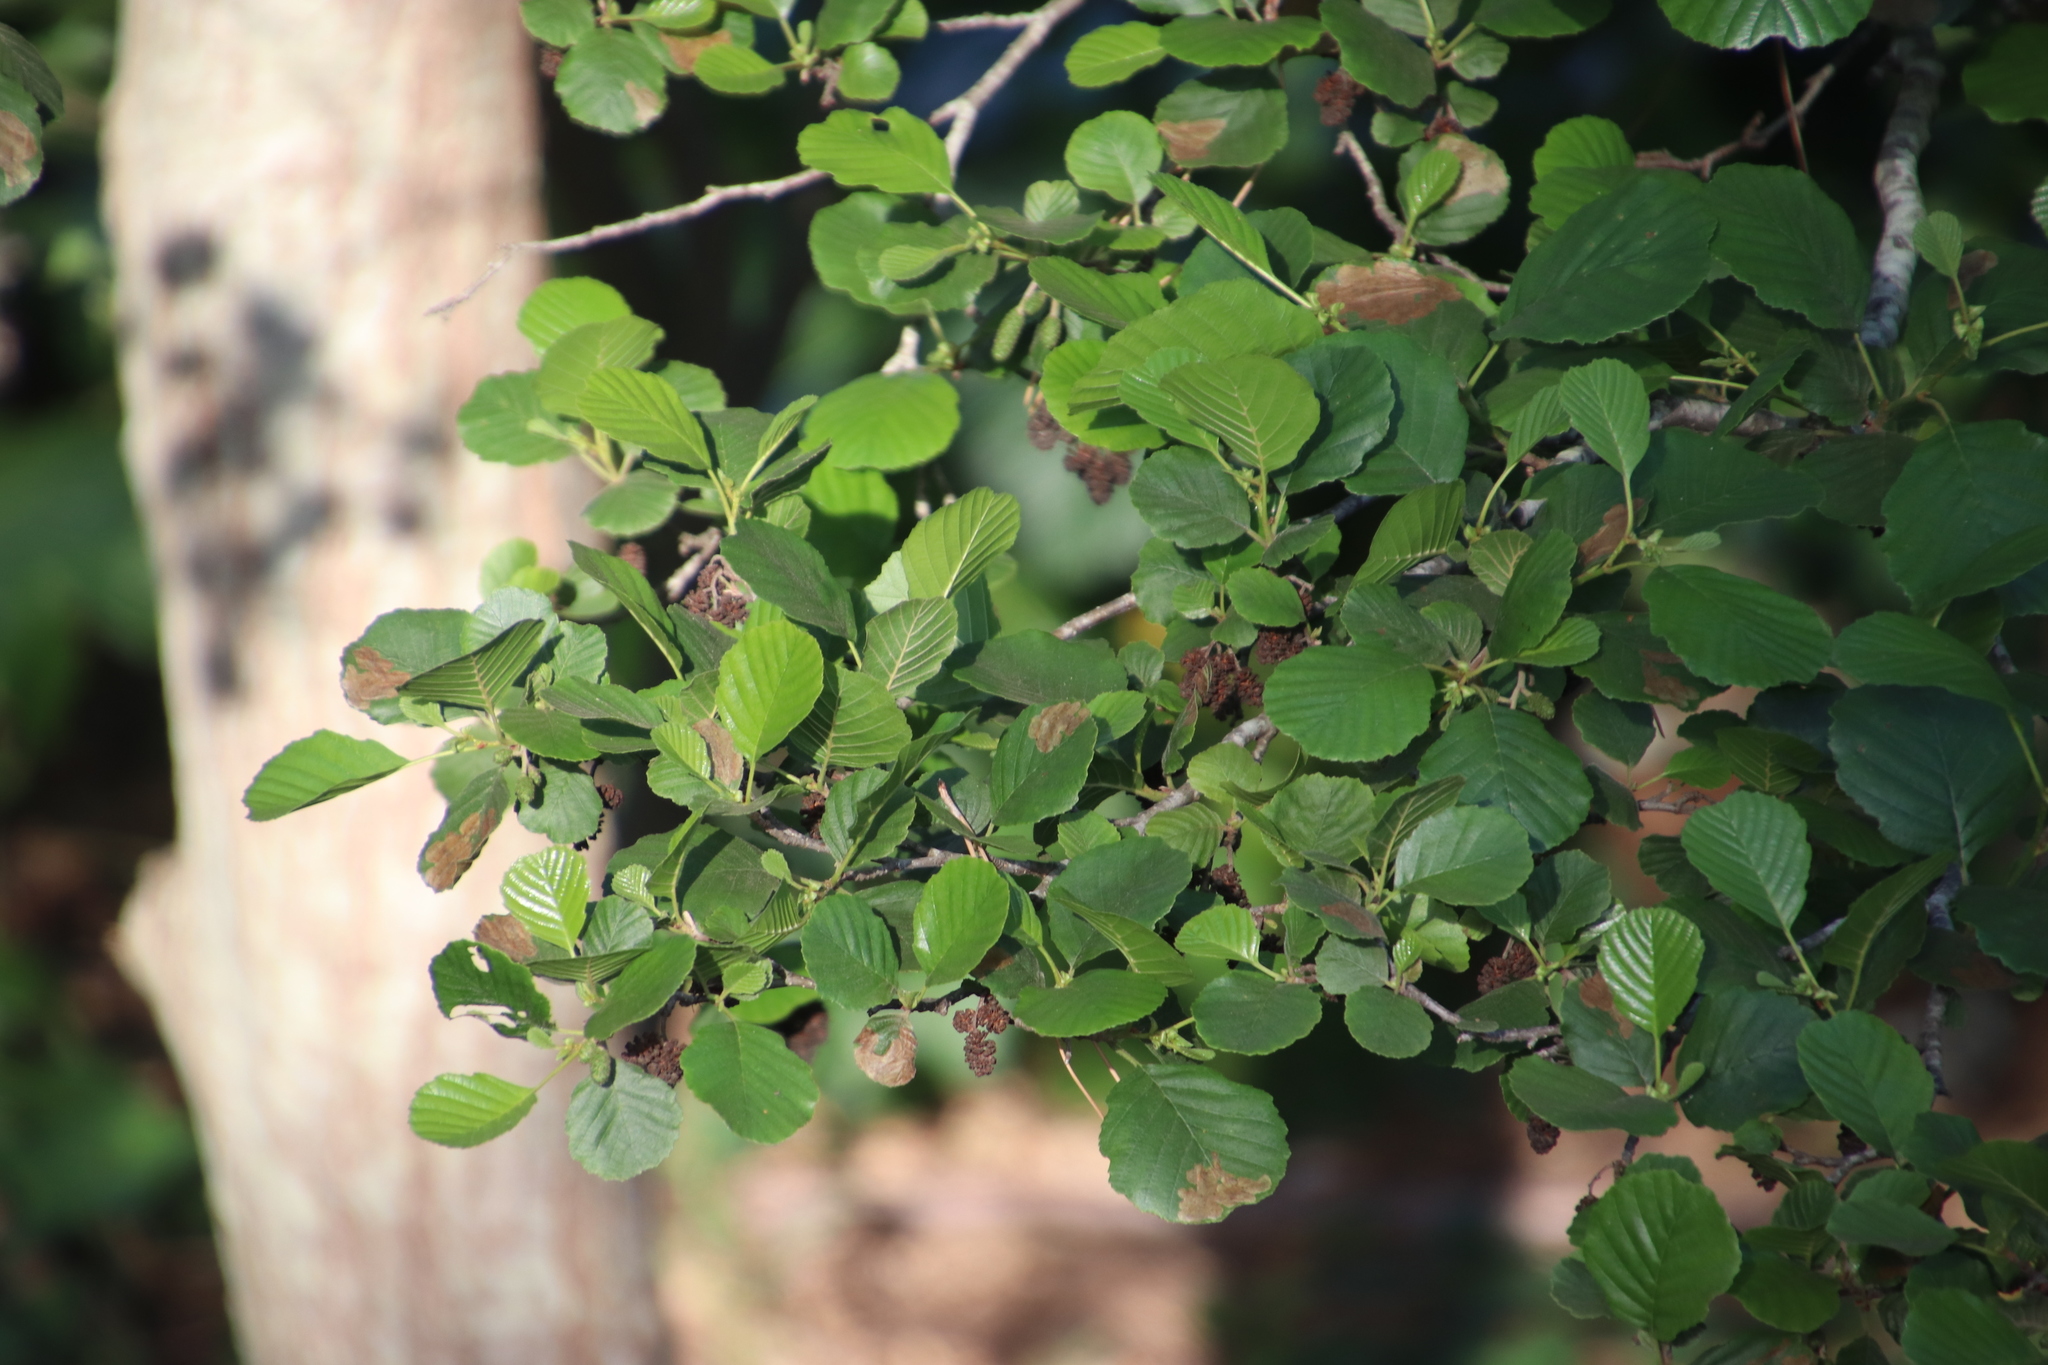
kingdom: Plantae
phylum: Tracheophyta
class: Magnoliopsida
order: Fagales
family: Betulaceae
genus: Alnus
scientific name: Alnus glutinosa
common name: Black alder
